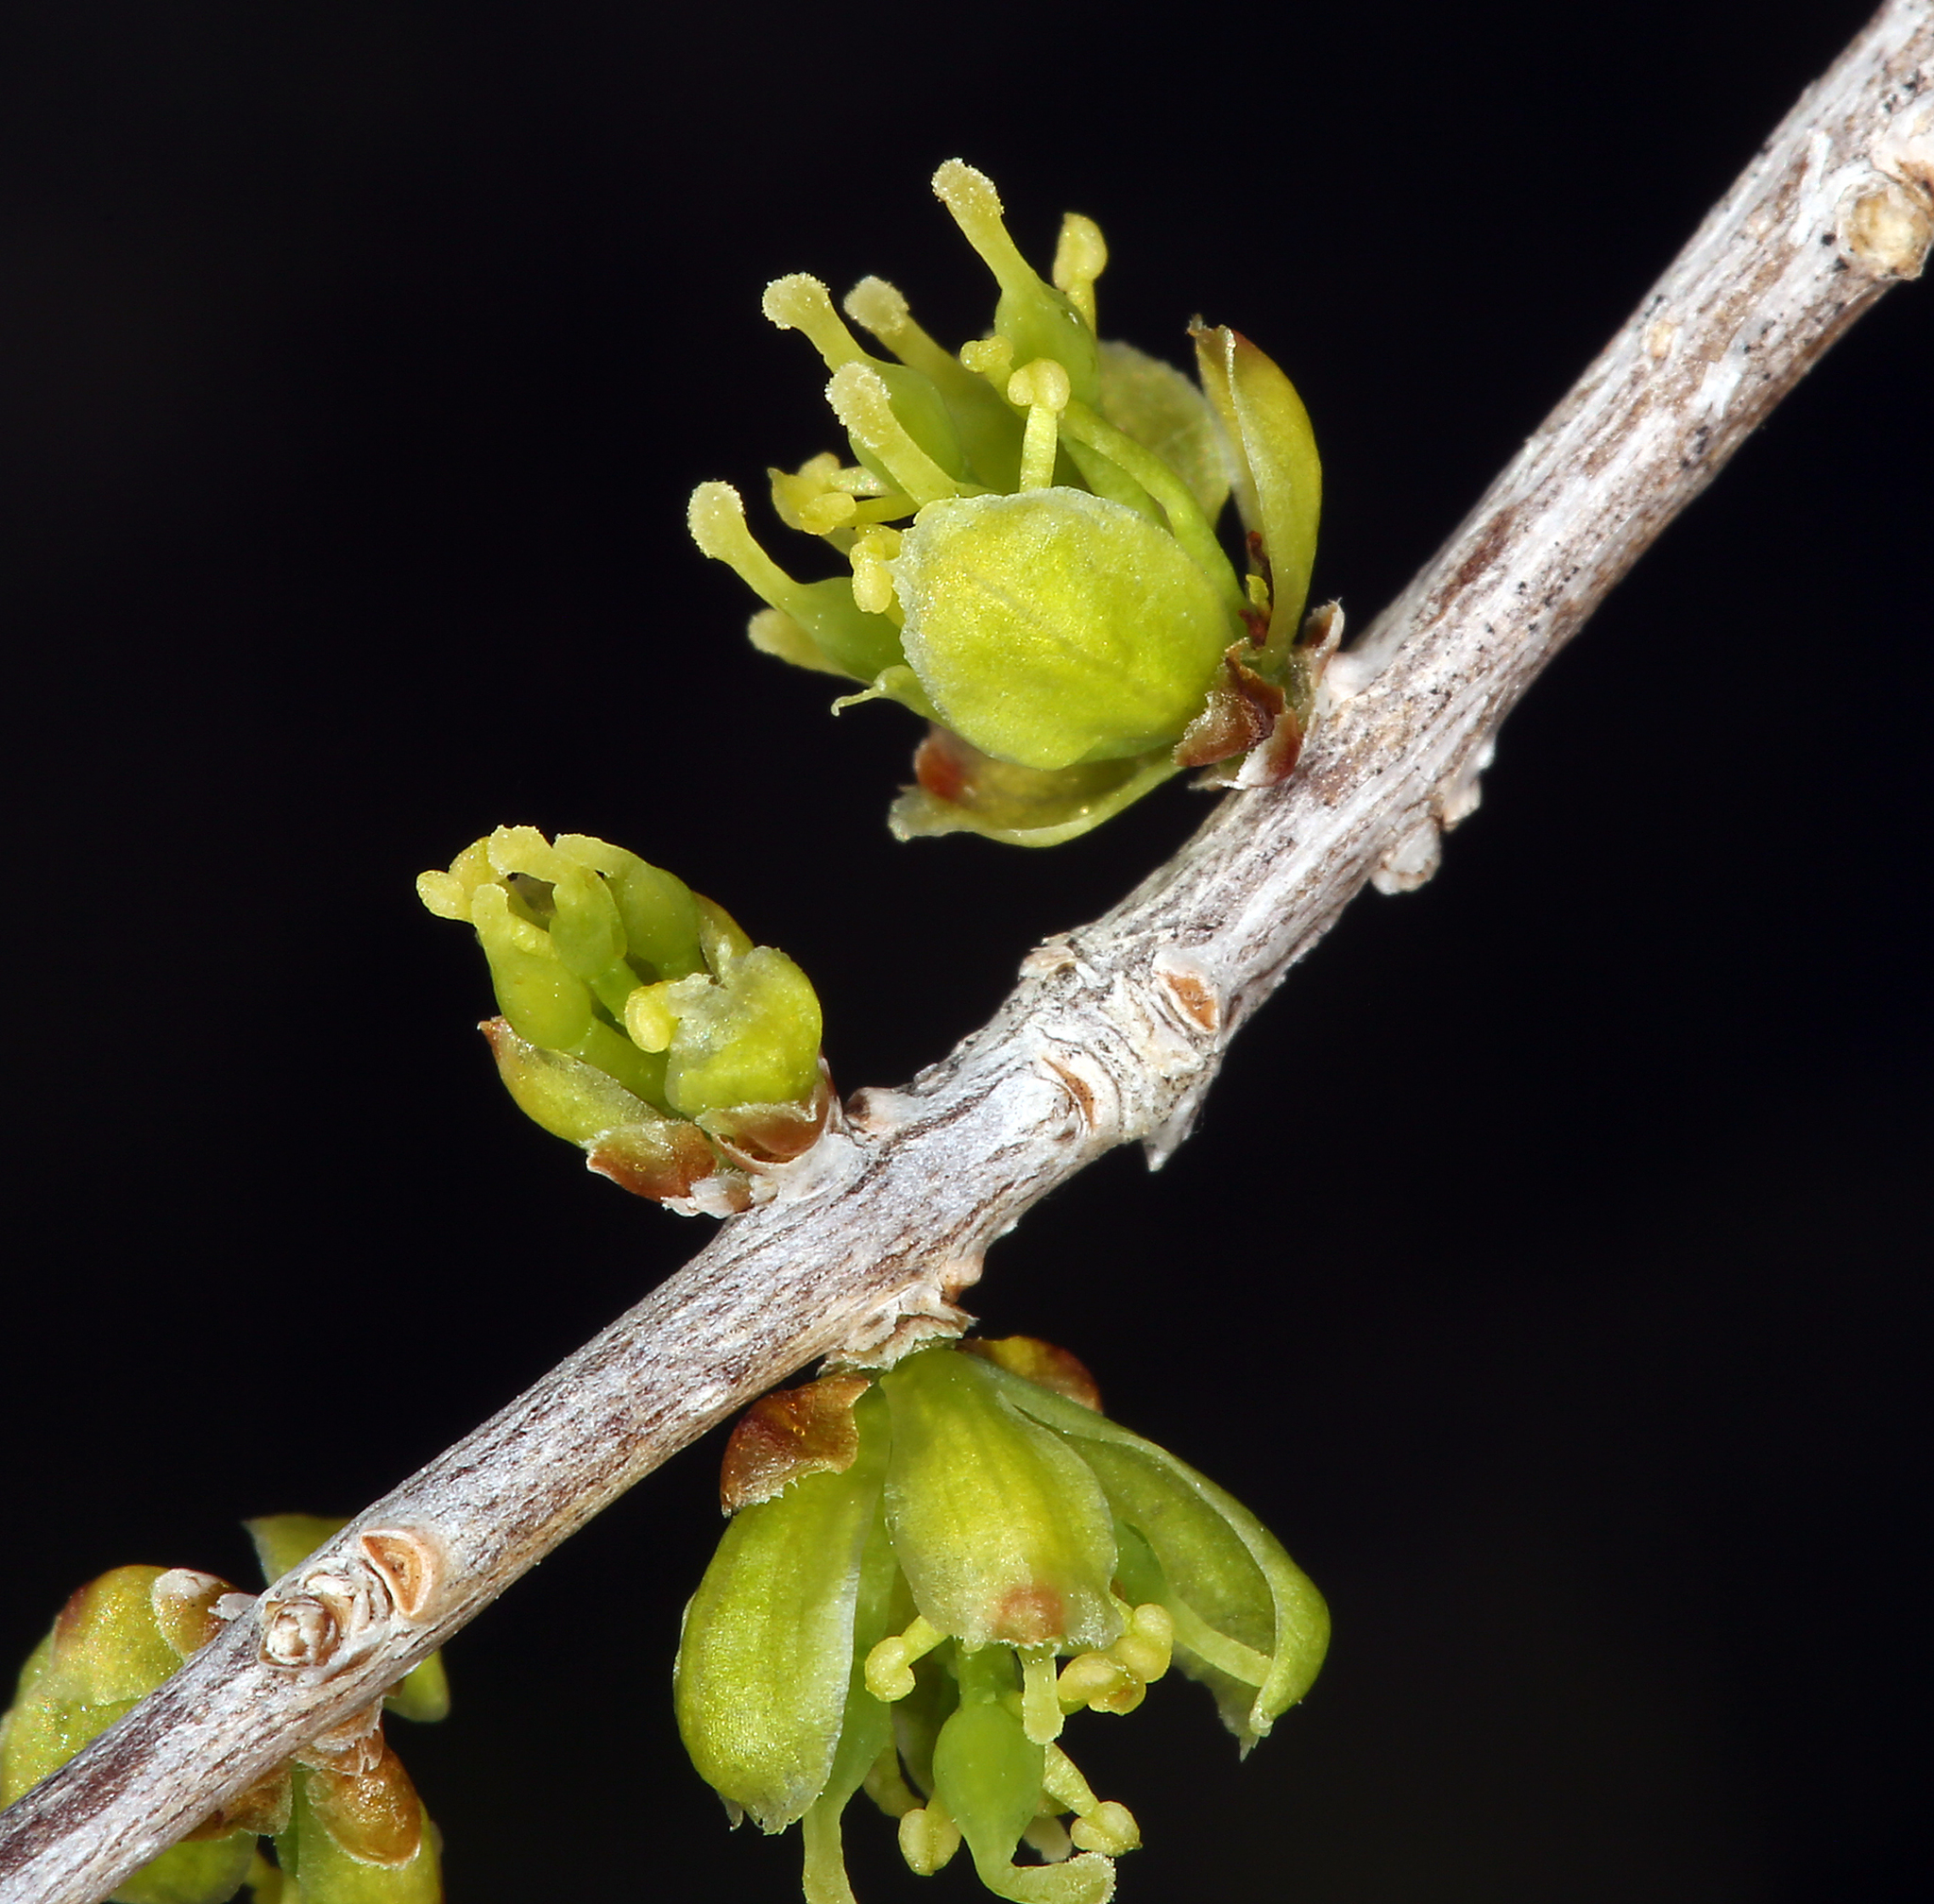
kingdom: Plantae
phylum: Tracheophyta
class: Magnoliopsida
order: Lamiales
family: Oleaceae
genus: Forestiera
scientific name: Forestiera pubescens
